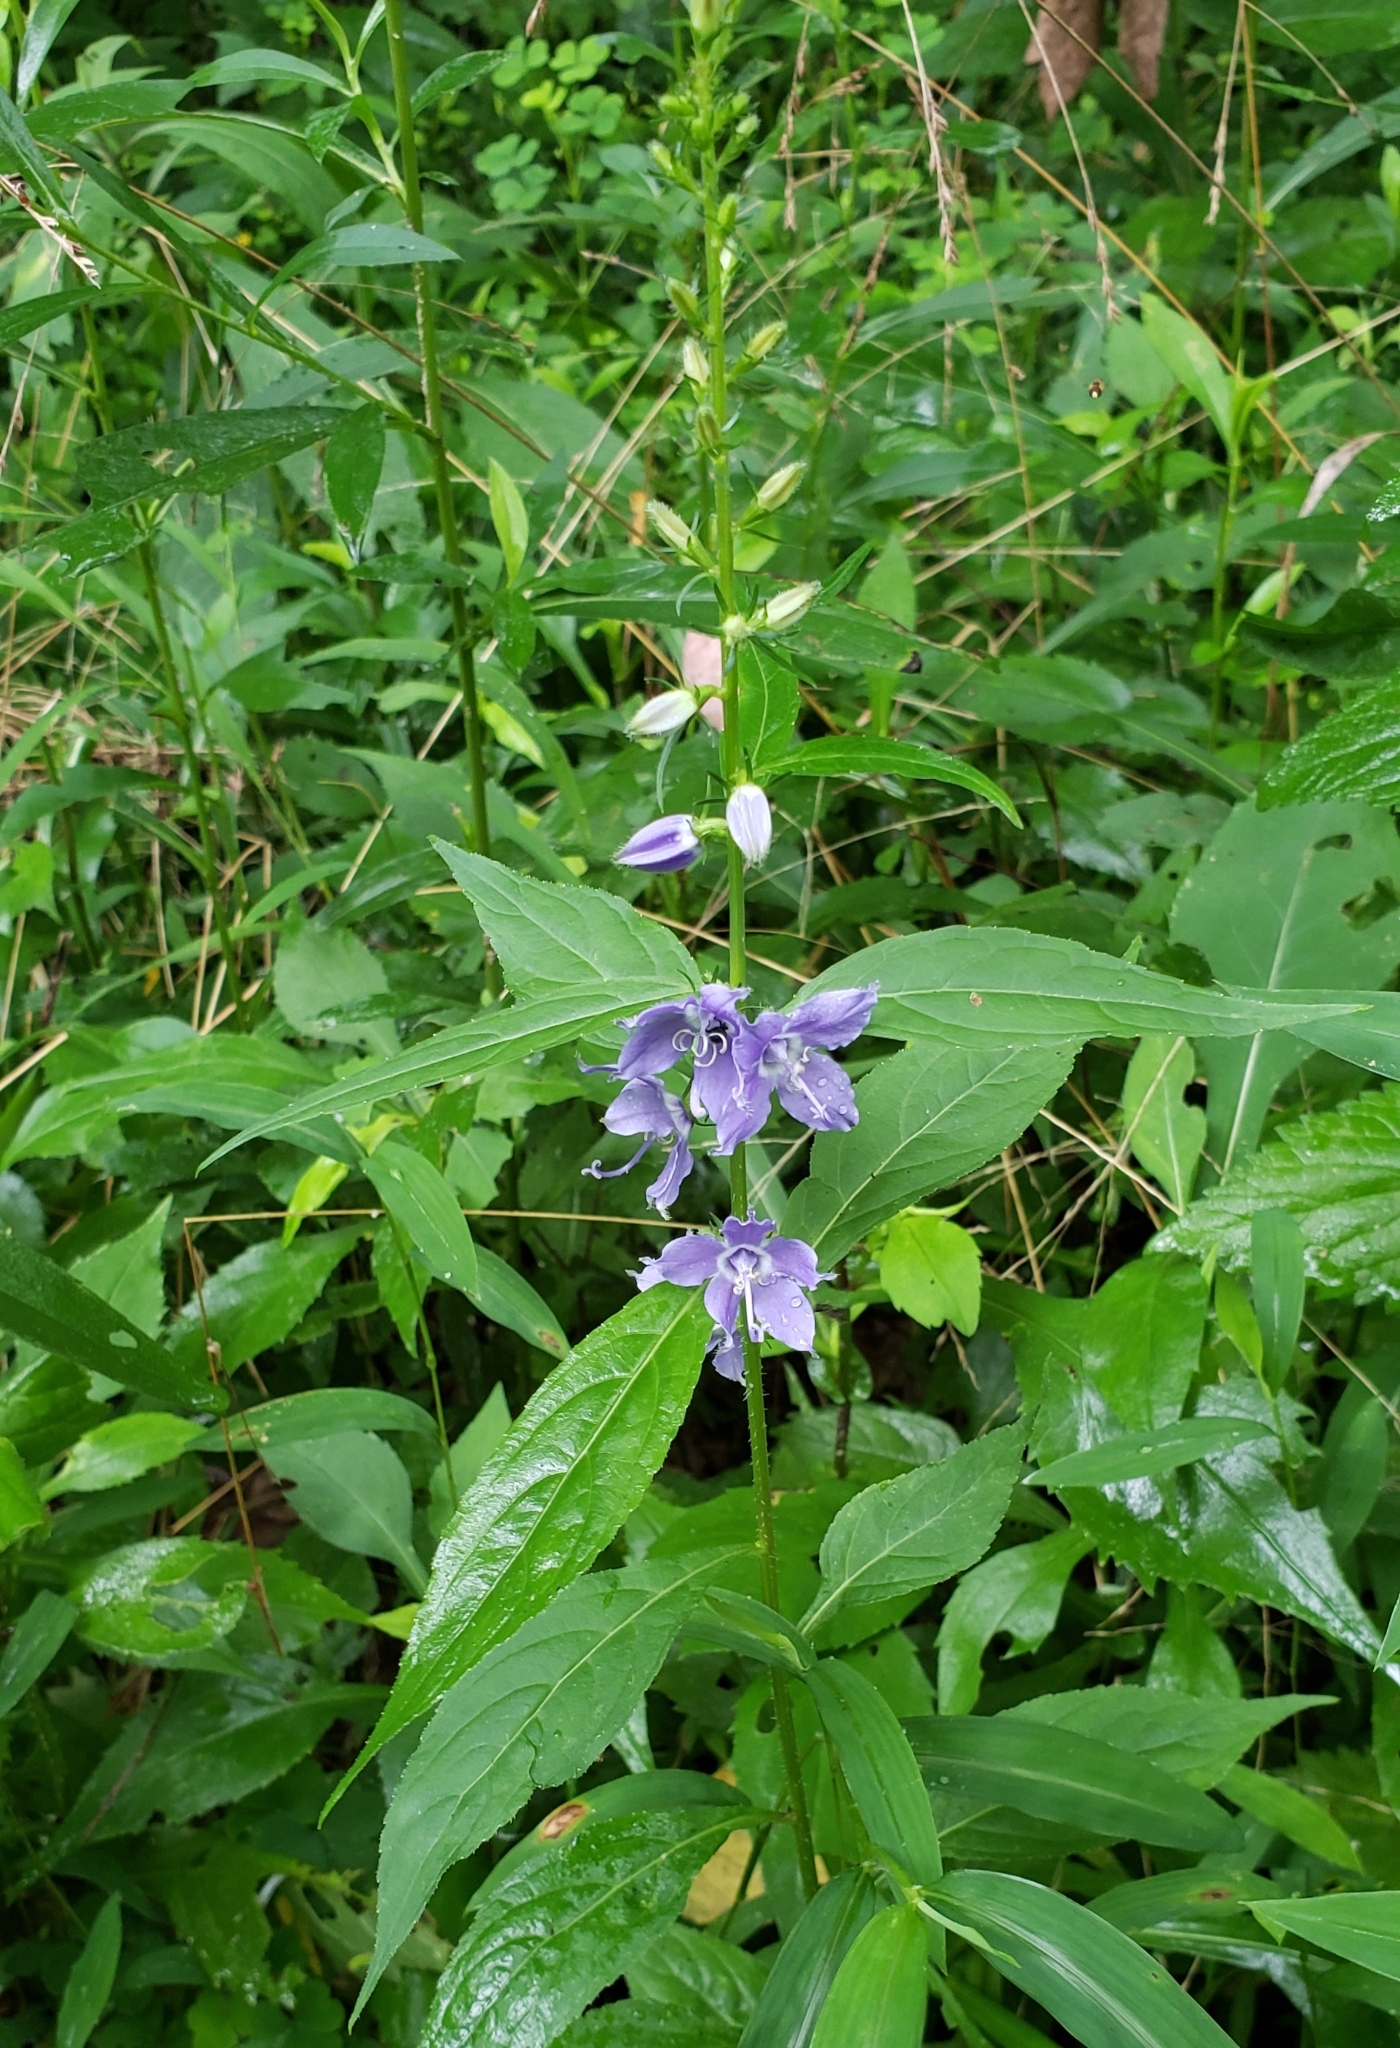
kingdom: Plantae
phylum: Tracheophyta
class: Magnoliopsida
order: Asterales
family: Campanulaceae
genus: Campanulastrum
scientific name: Campanulastrum americanum
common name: American bellflower
